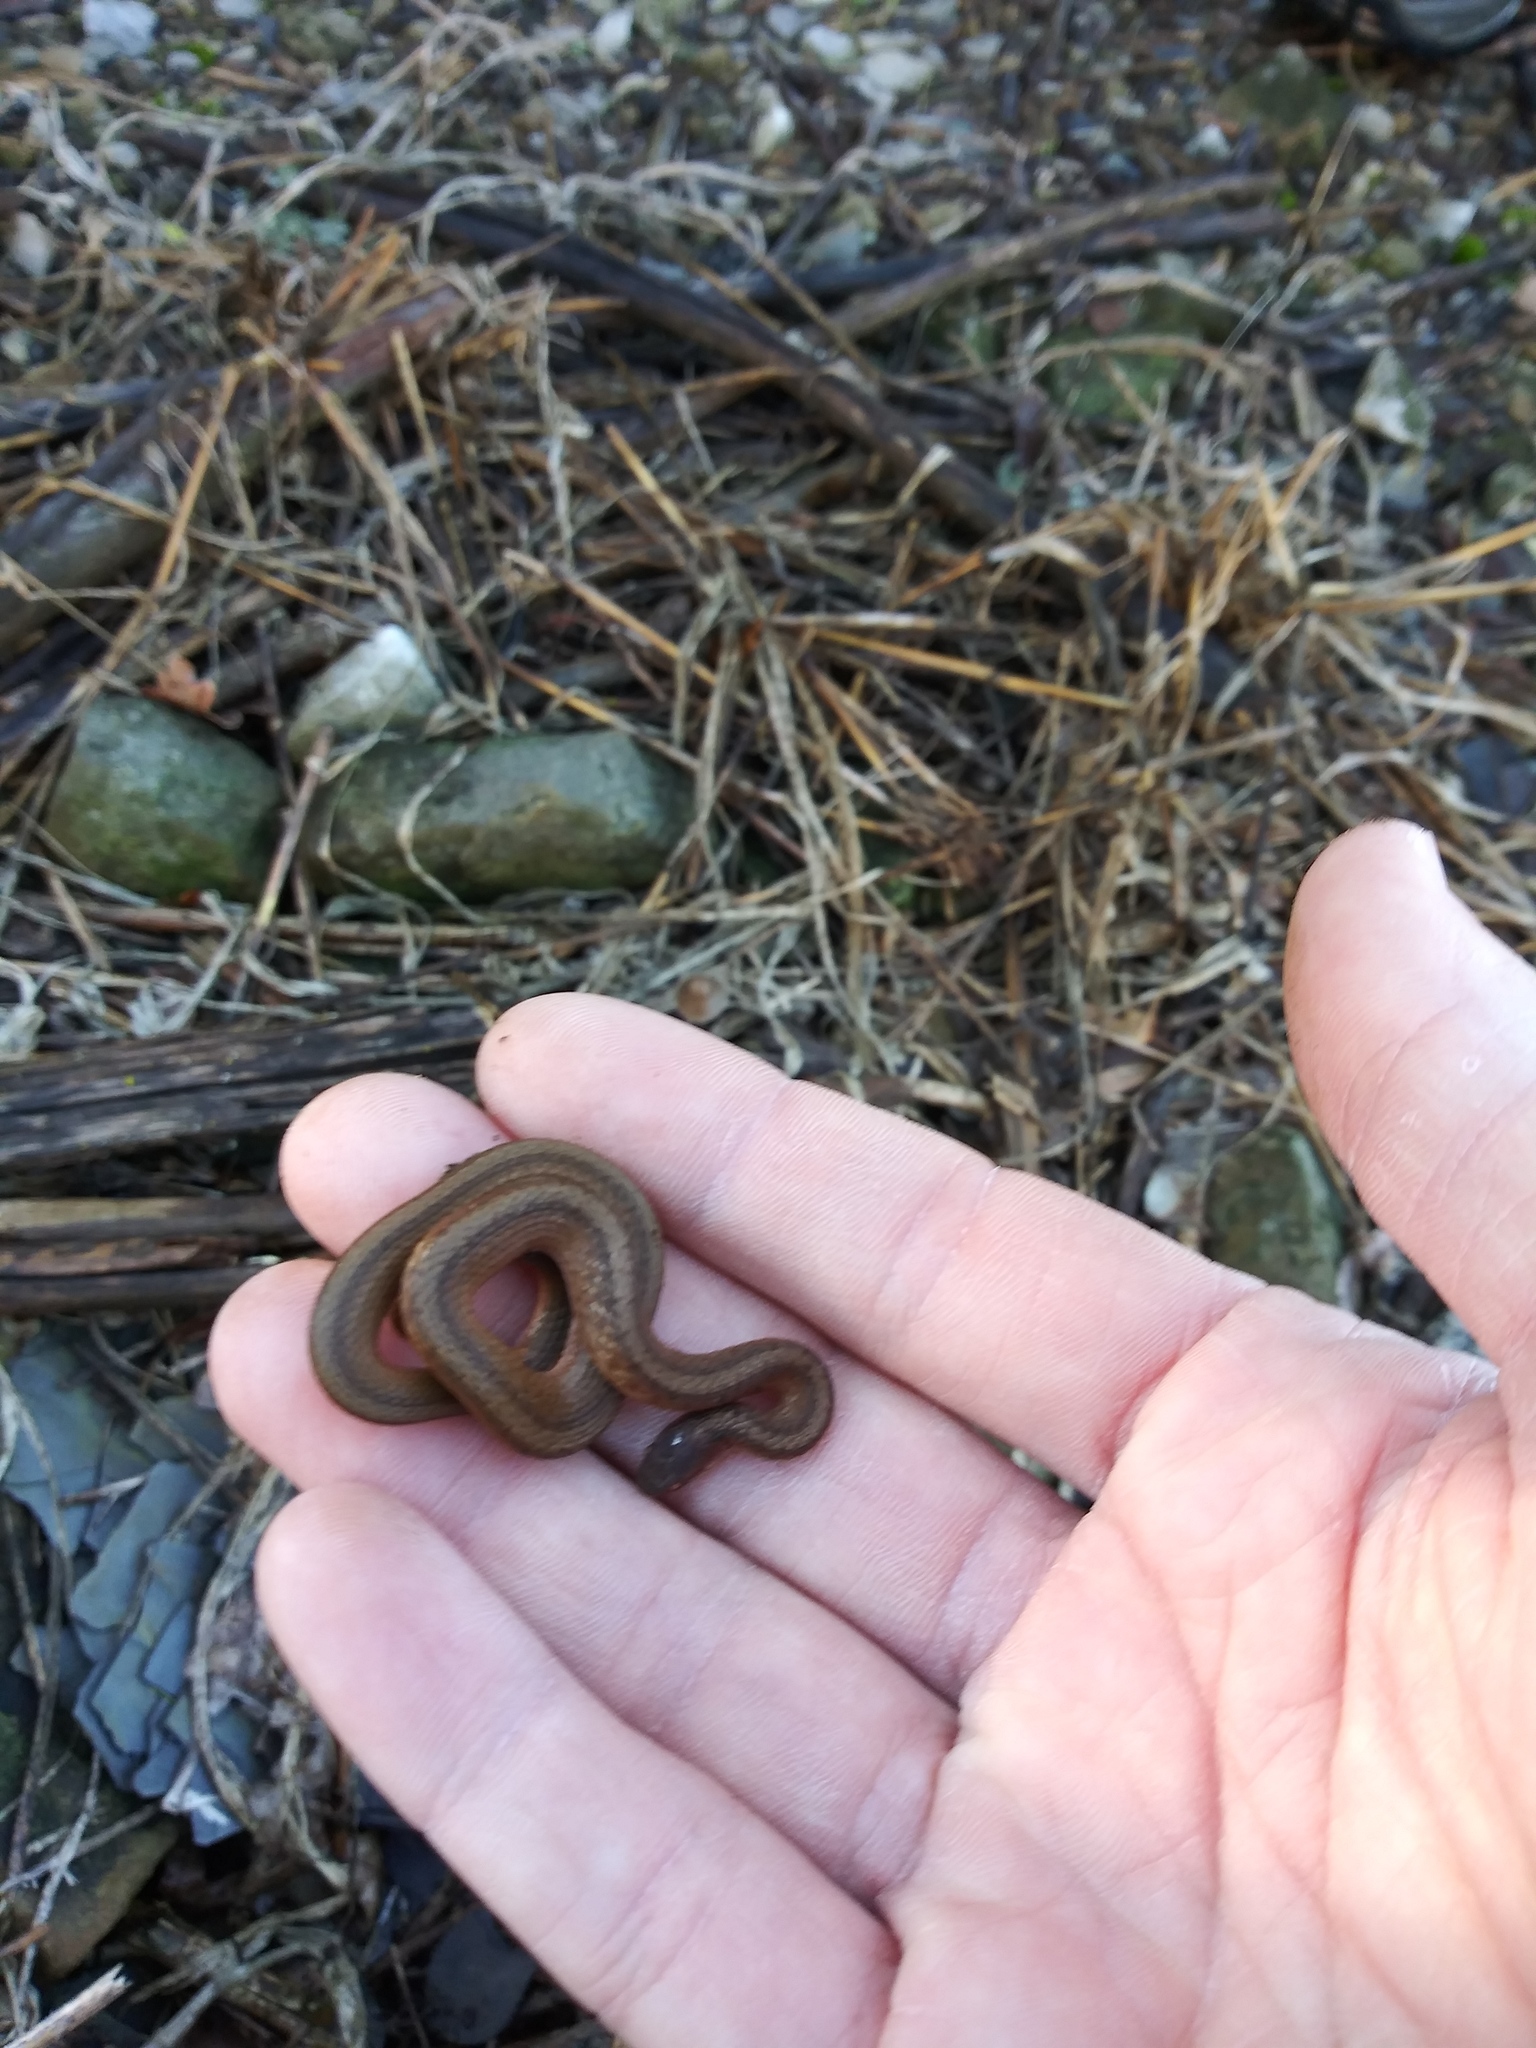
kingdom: Animalia
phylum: Chordata
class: Squamata
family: Colubridae
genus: Storeria
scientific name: Storeria dekayi
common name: (dekay’s) brown snake
